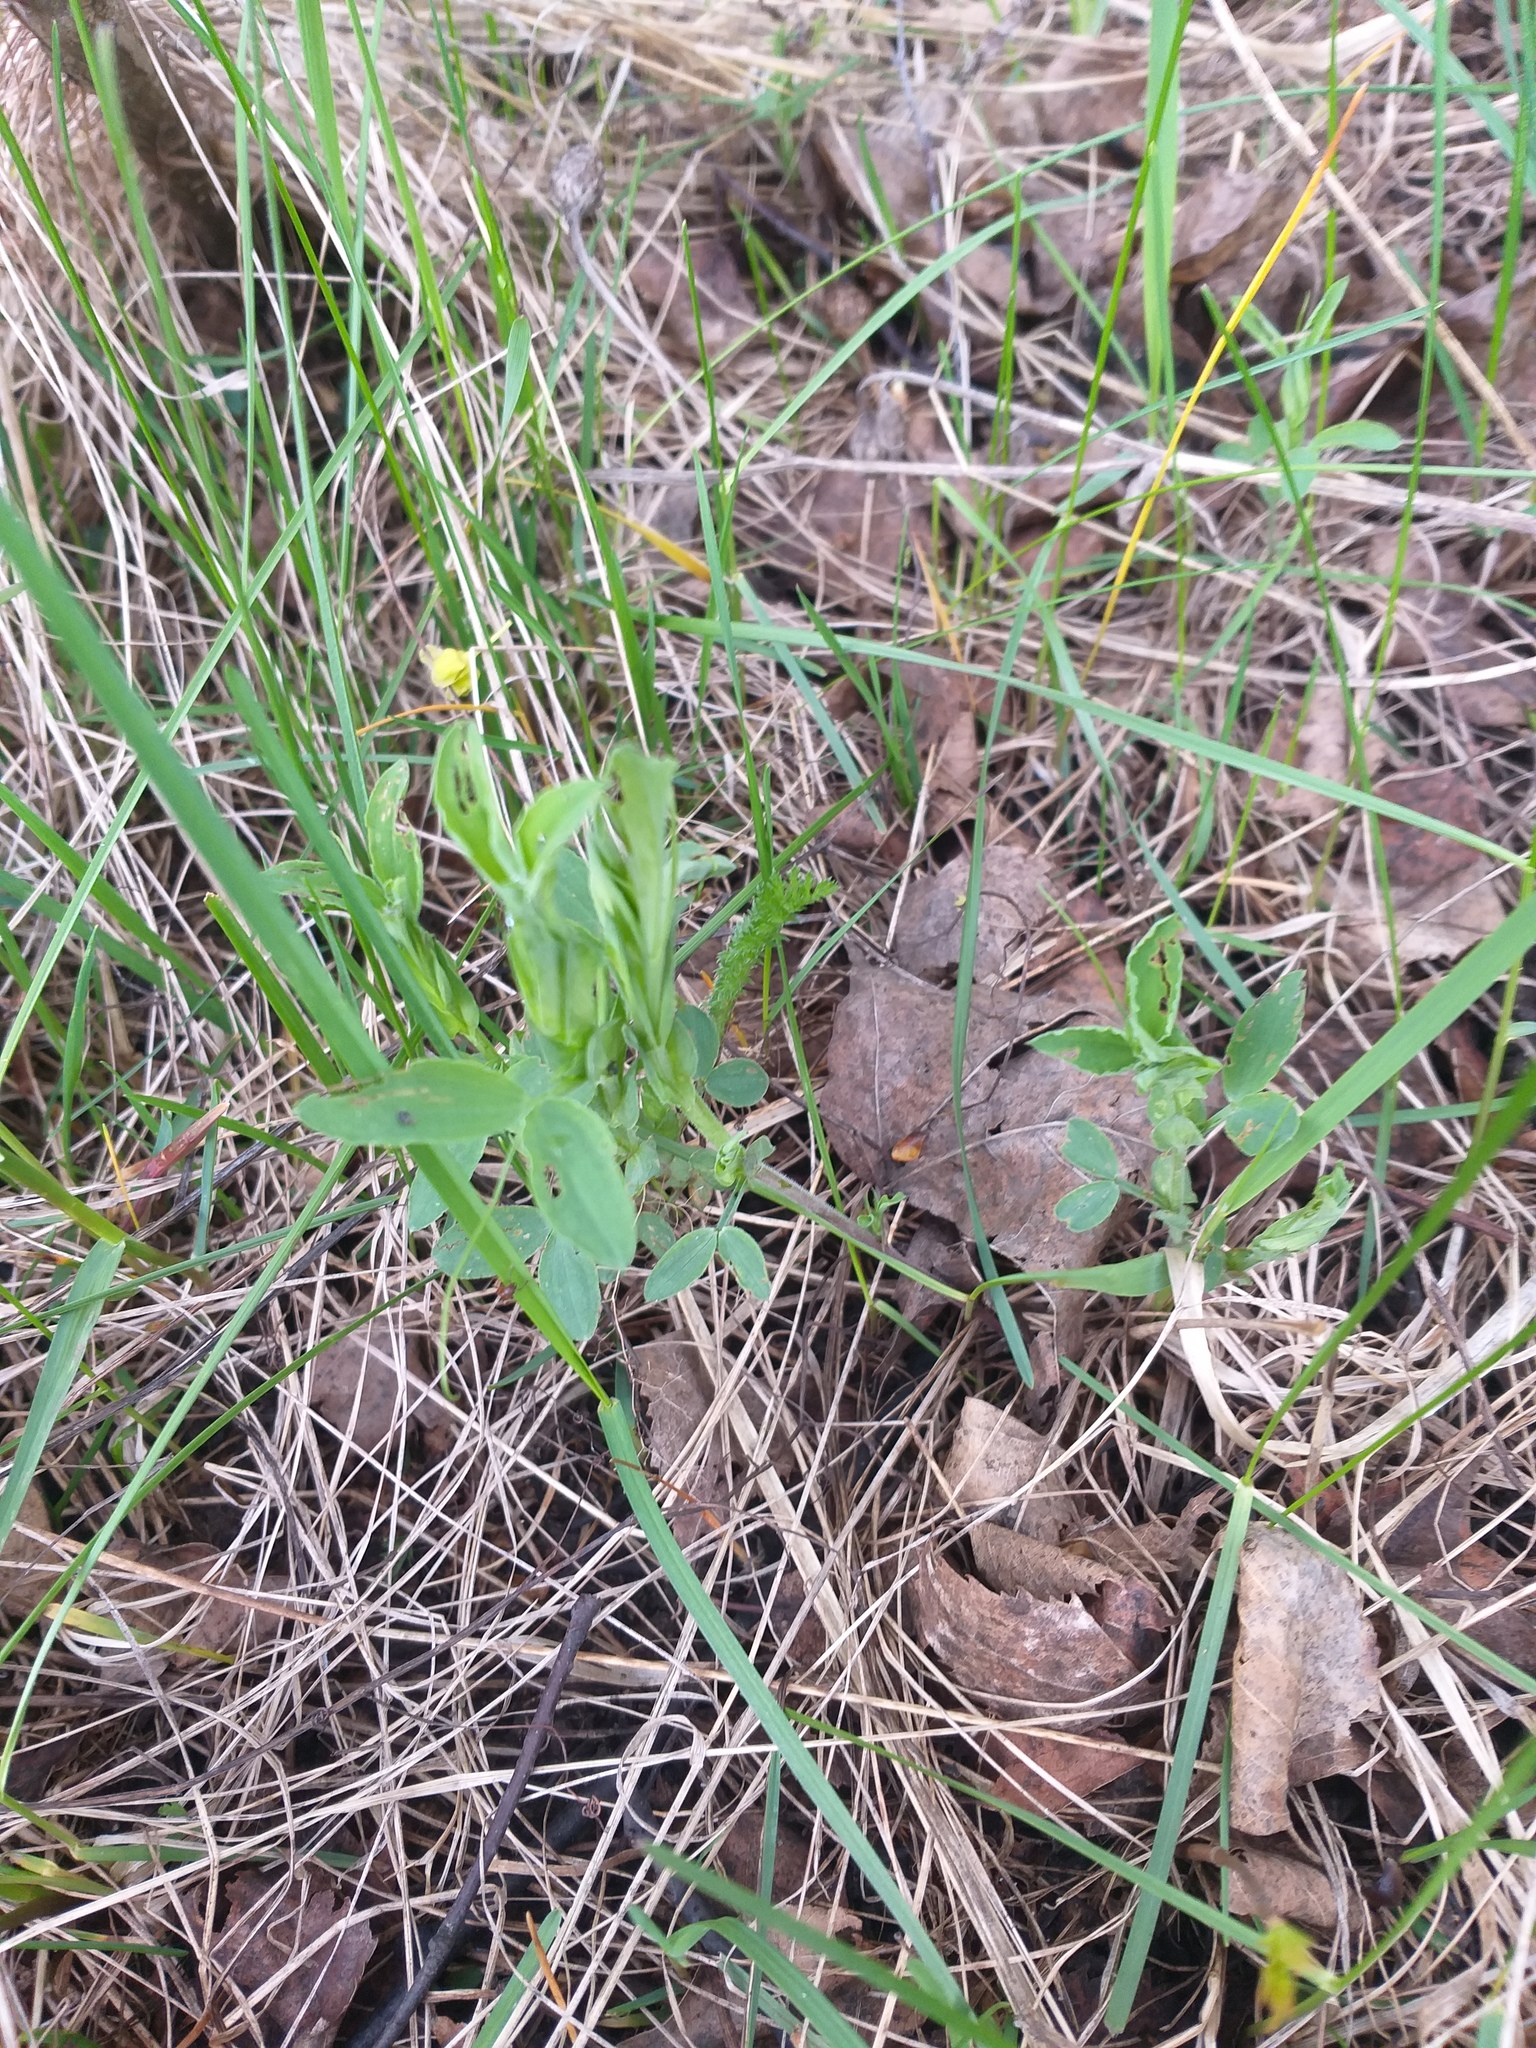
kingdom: Plantae
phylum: Tracheophyta
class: Magnoliopsida
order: Fabales
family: Fabaceae
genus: Lathyrus
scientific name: Lathyrus pratensis
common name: Meadow vetchling
